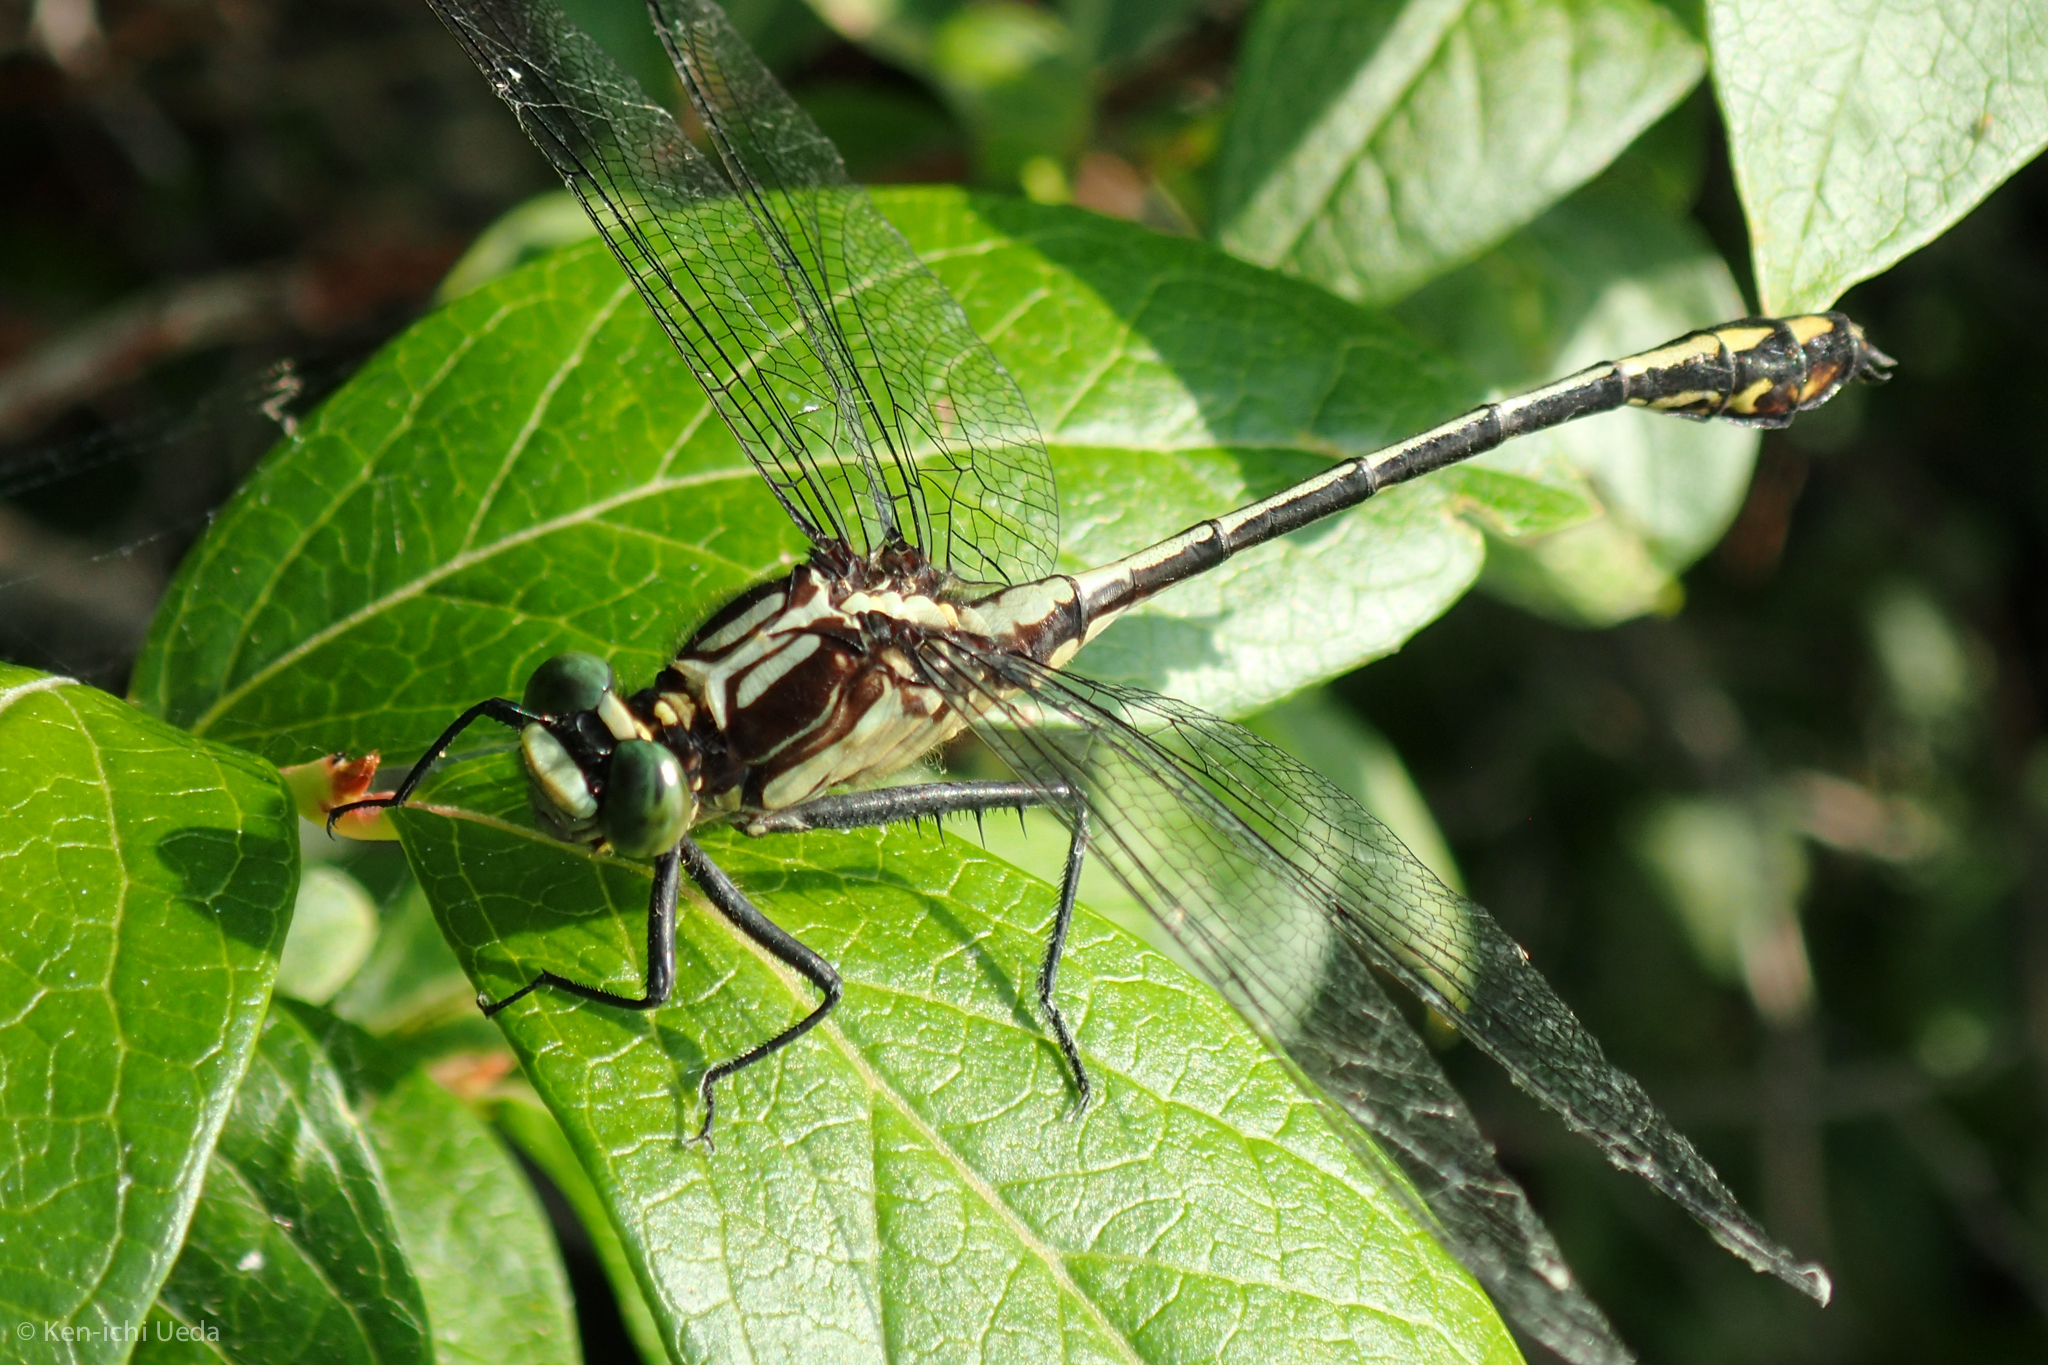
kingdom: Animalia
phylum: Arthropoda
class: Insecta
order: Odonata
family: Gomphidae
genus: Dromogomphus
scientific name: Dromogomphus spinosus
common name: Black-shouldered spinyleg
